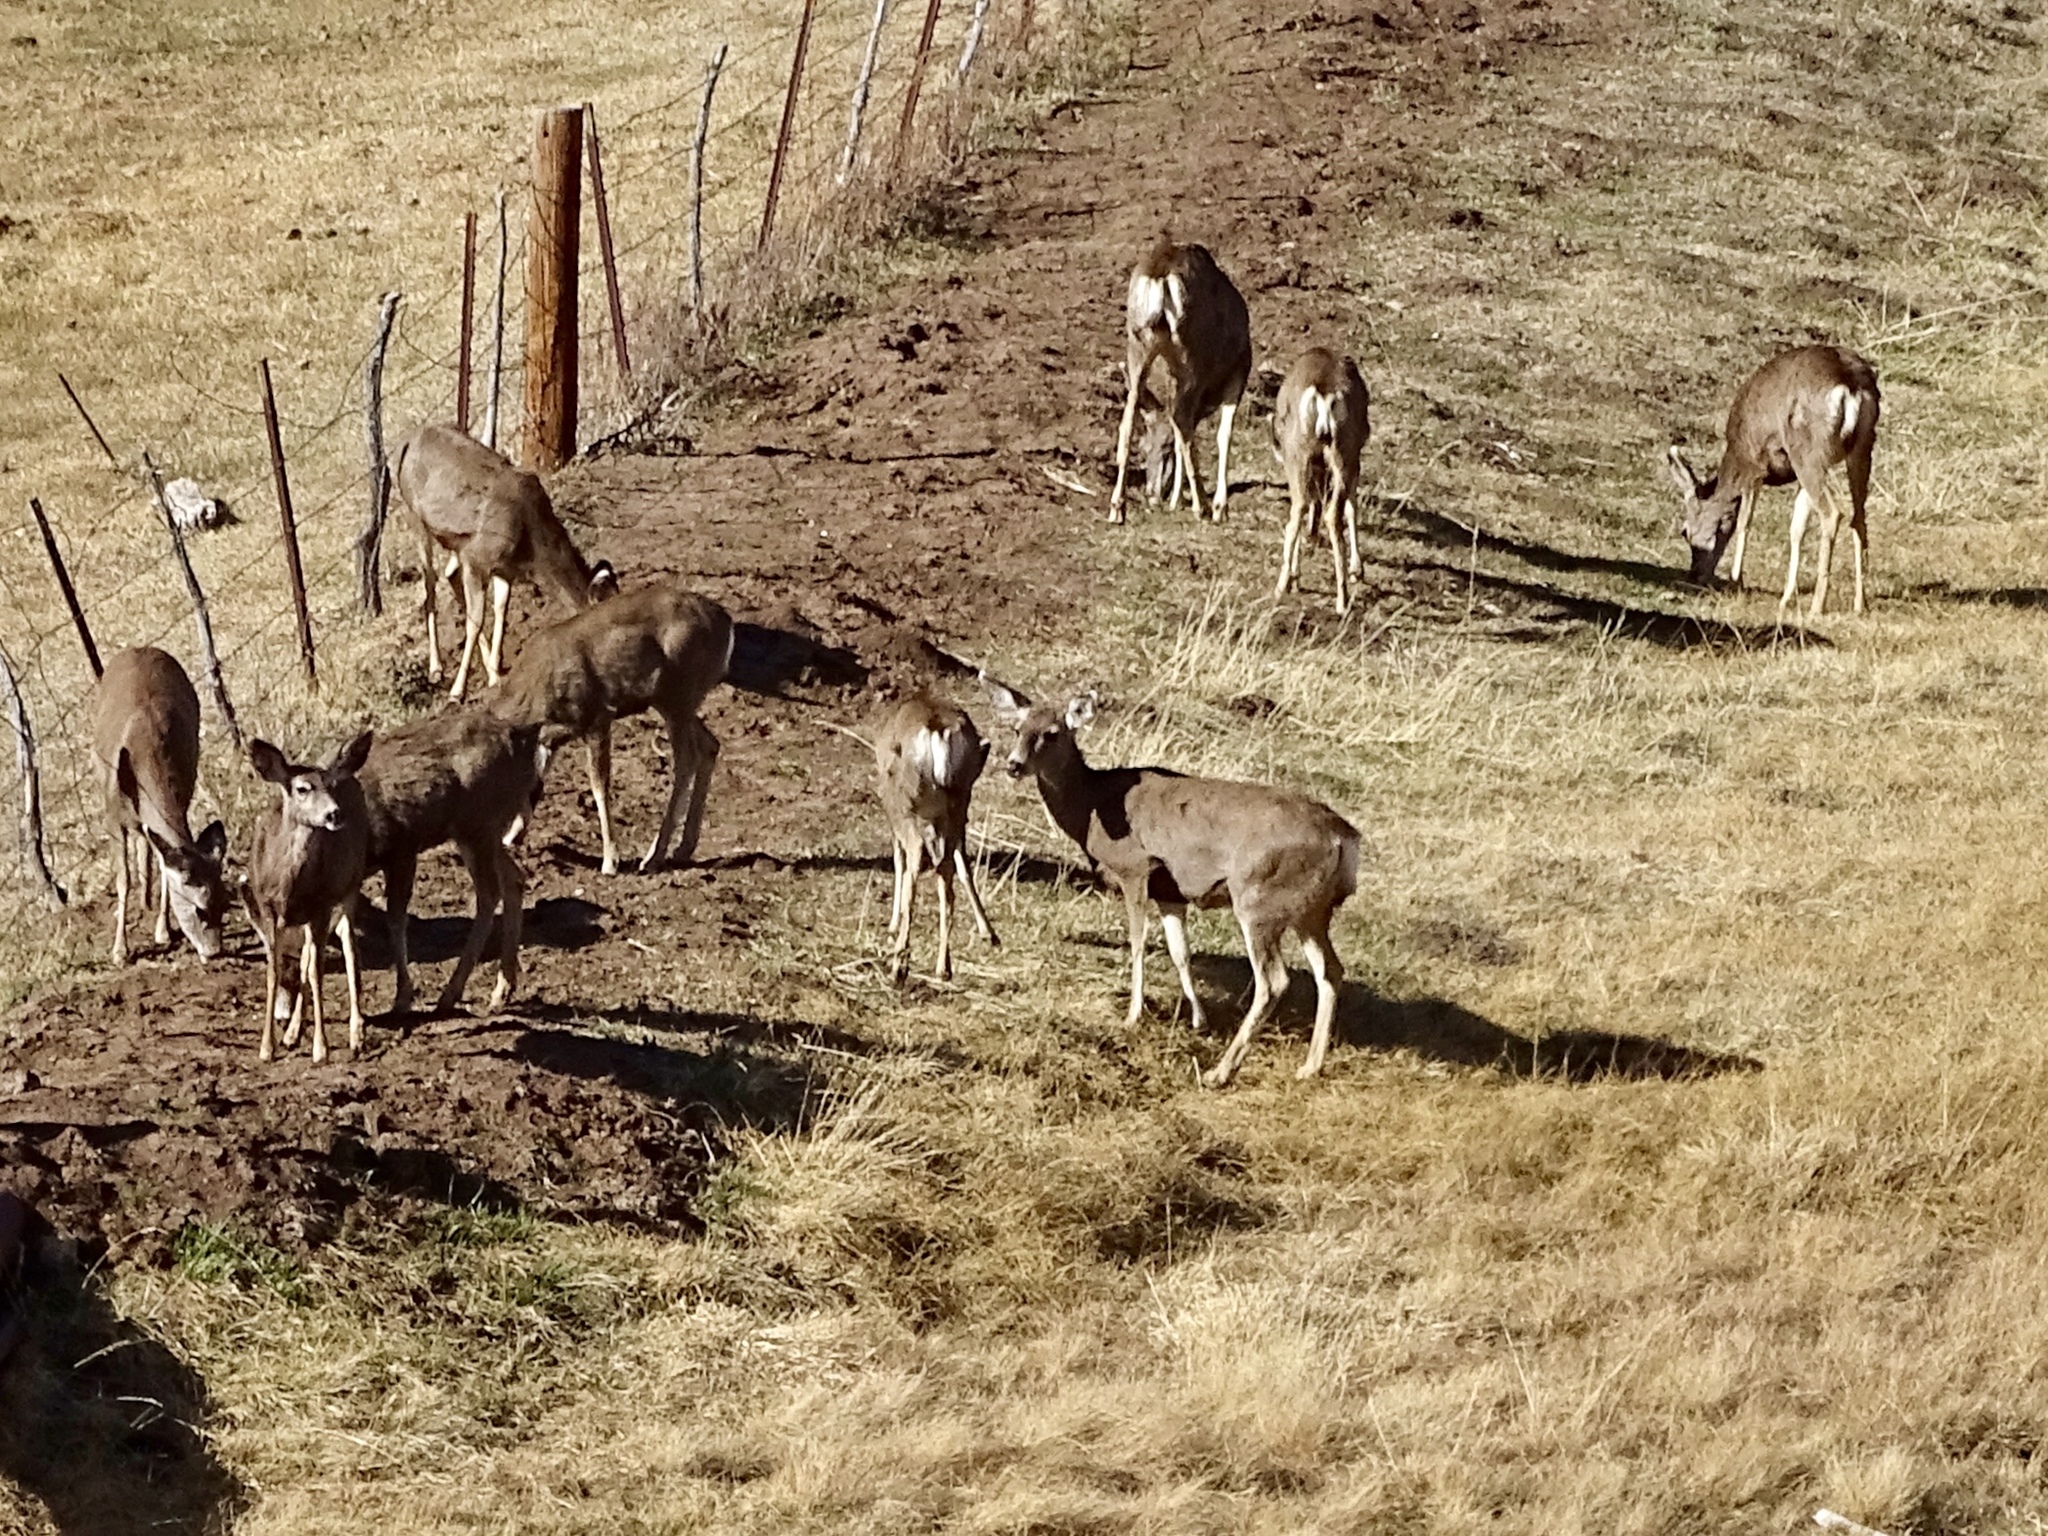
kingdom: Animalia
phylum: Chordata
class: Mammalia
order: Artiodactyla
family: Cervidae
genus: Odocoileus
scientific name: Odocoileus hemionus
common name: Mule deer
